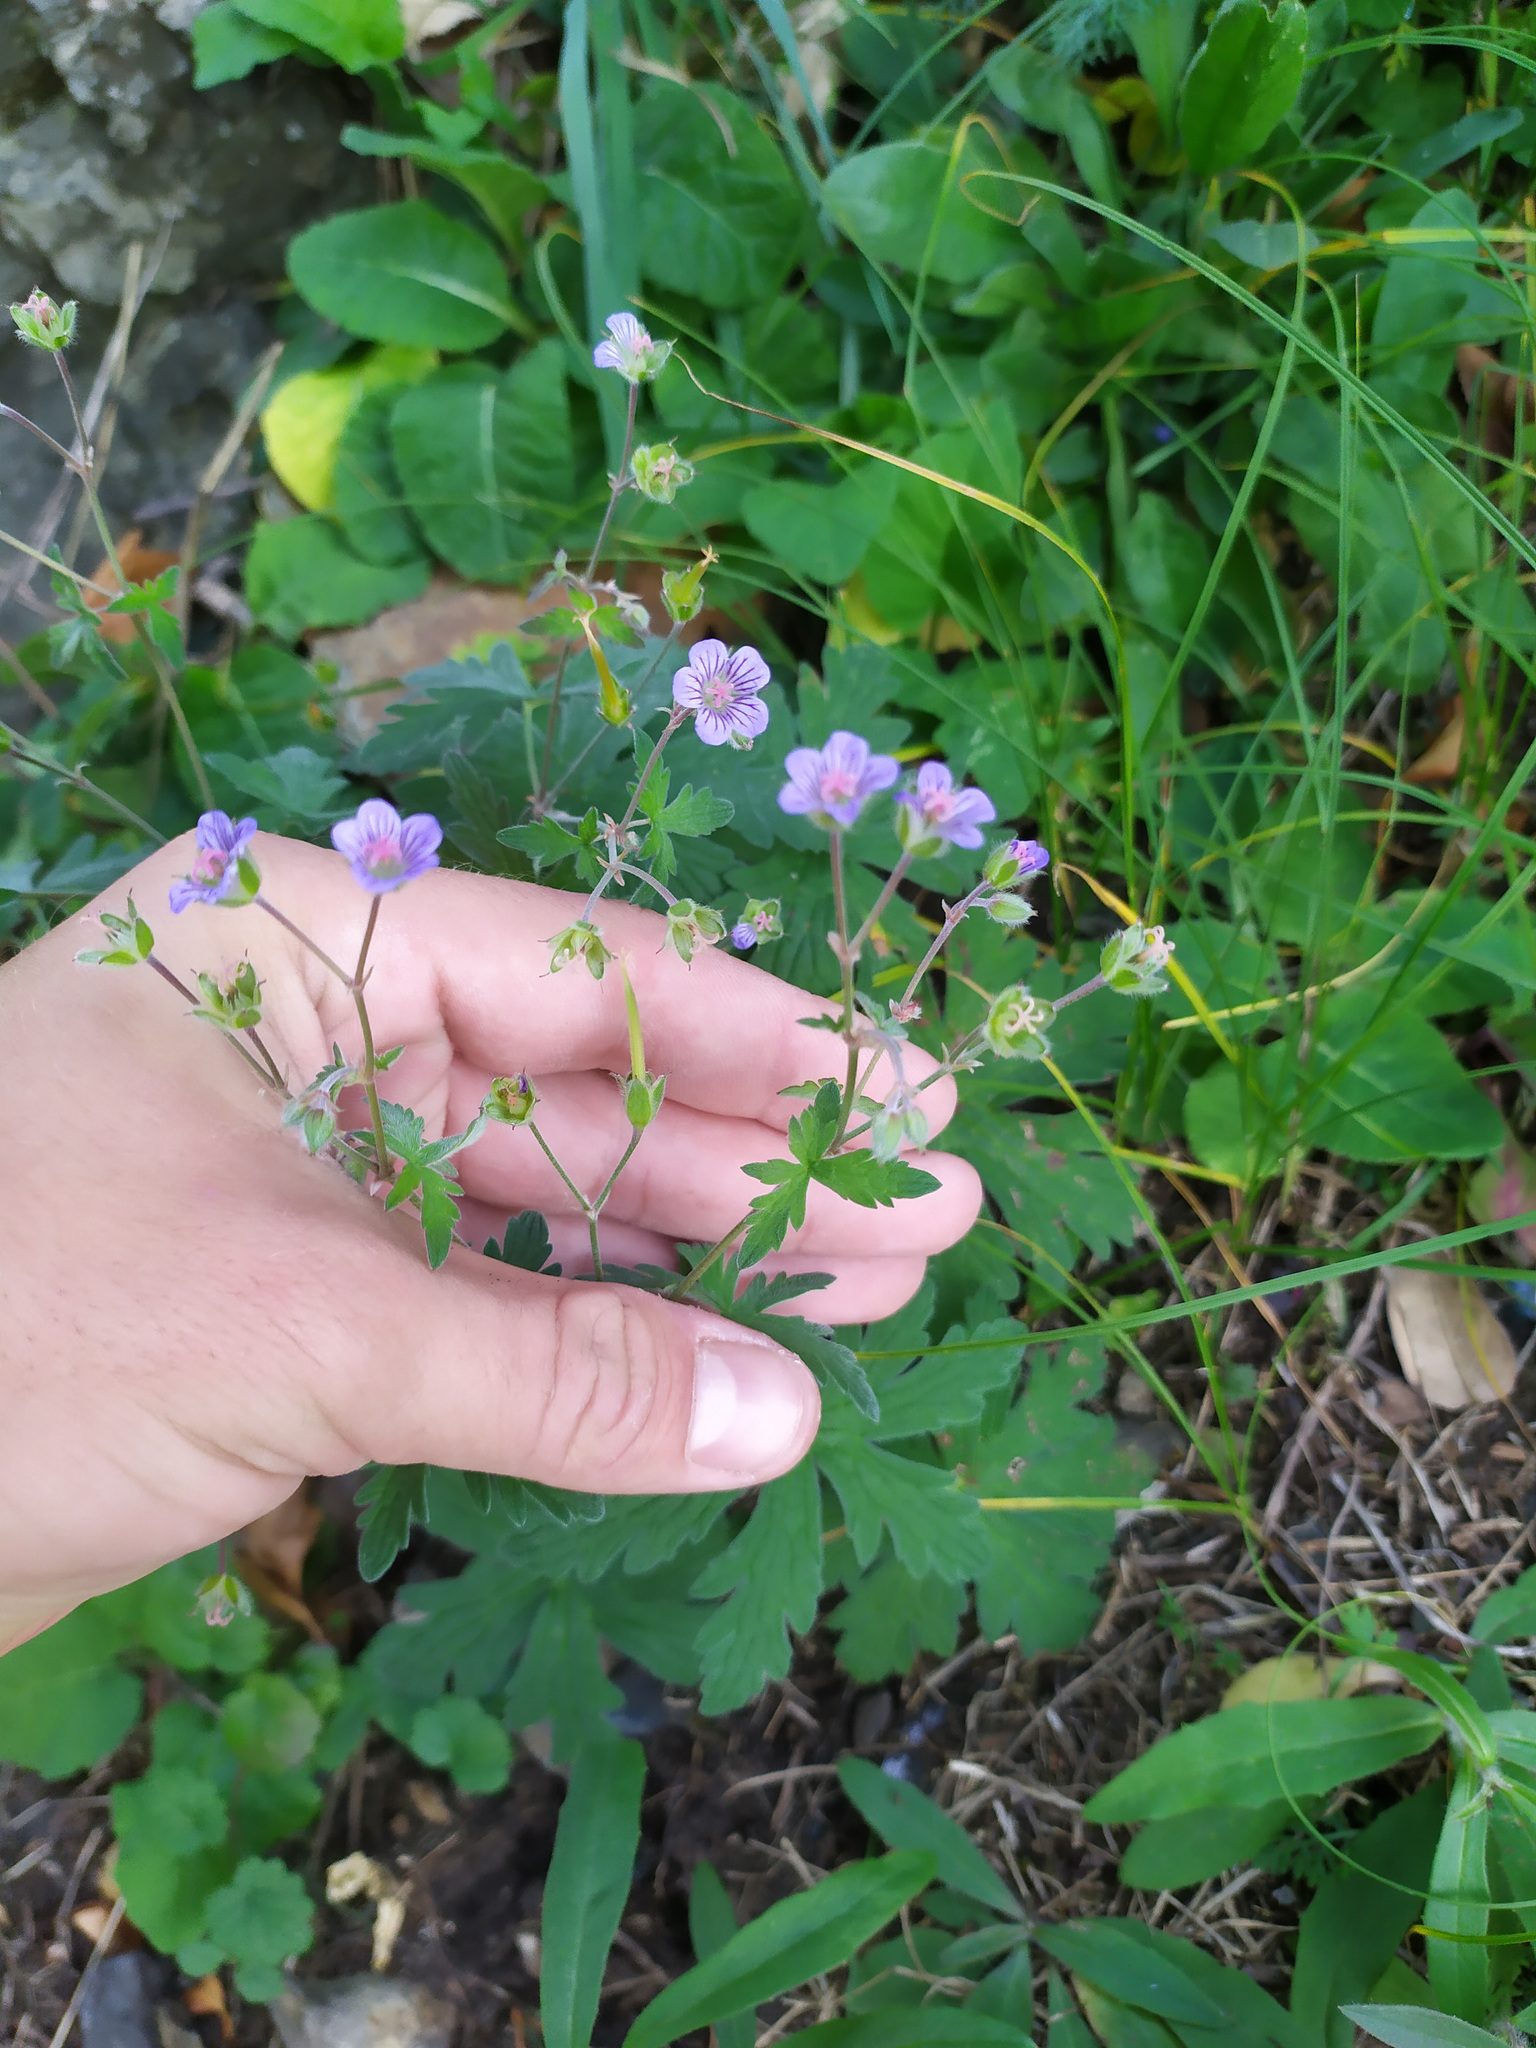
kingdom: Plantae
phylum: Tracheophyta
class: Magnoliopsida
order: Geraniales
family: Geraniaceae
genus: Geranium
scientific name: Geranium igoschinae
